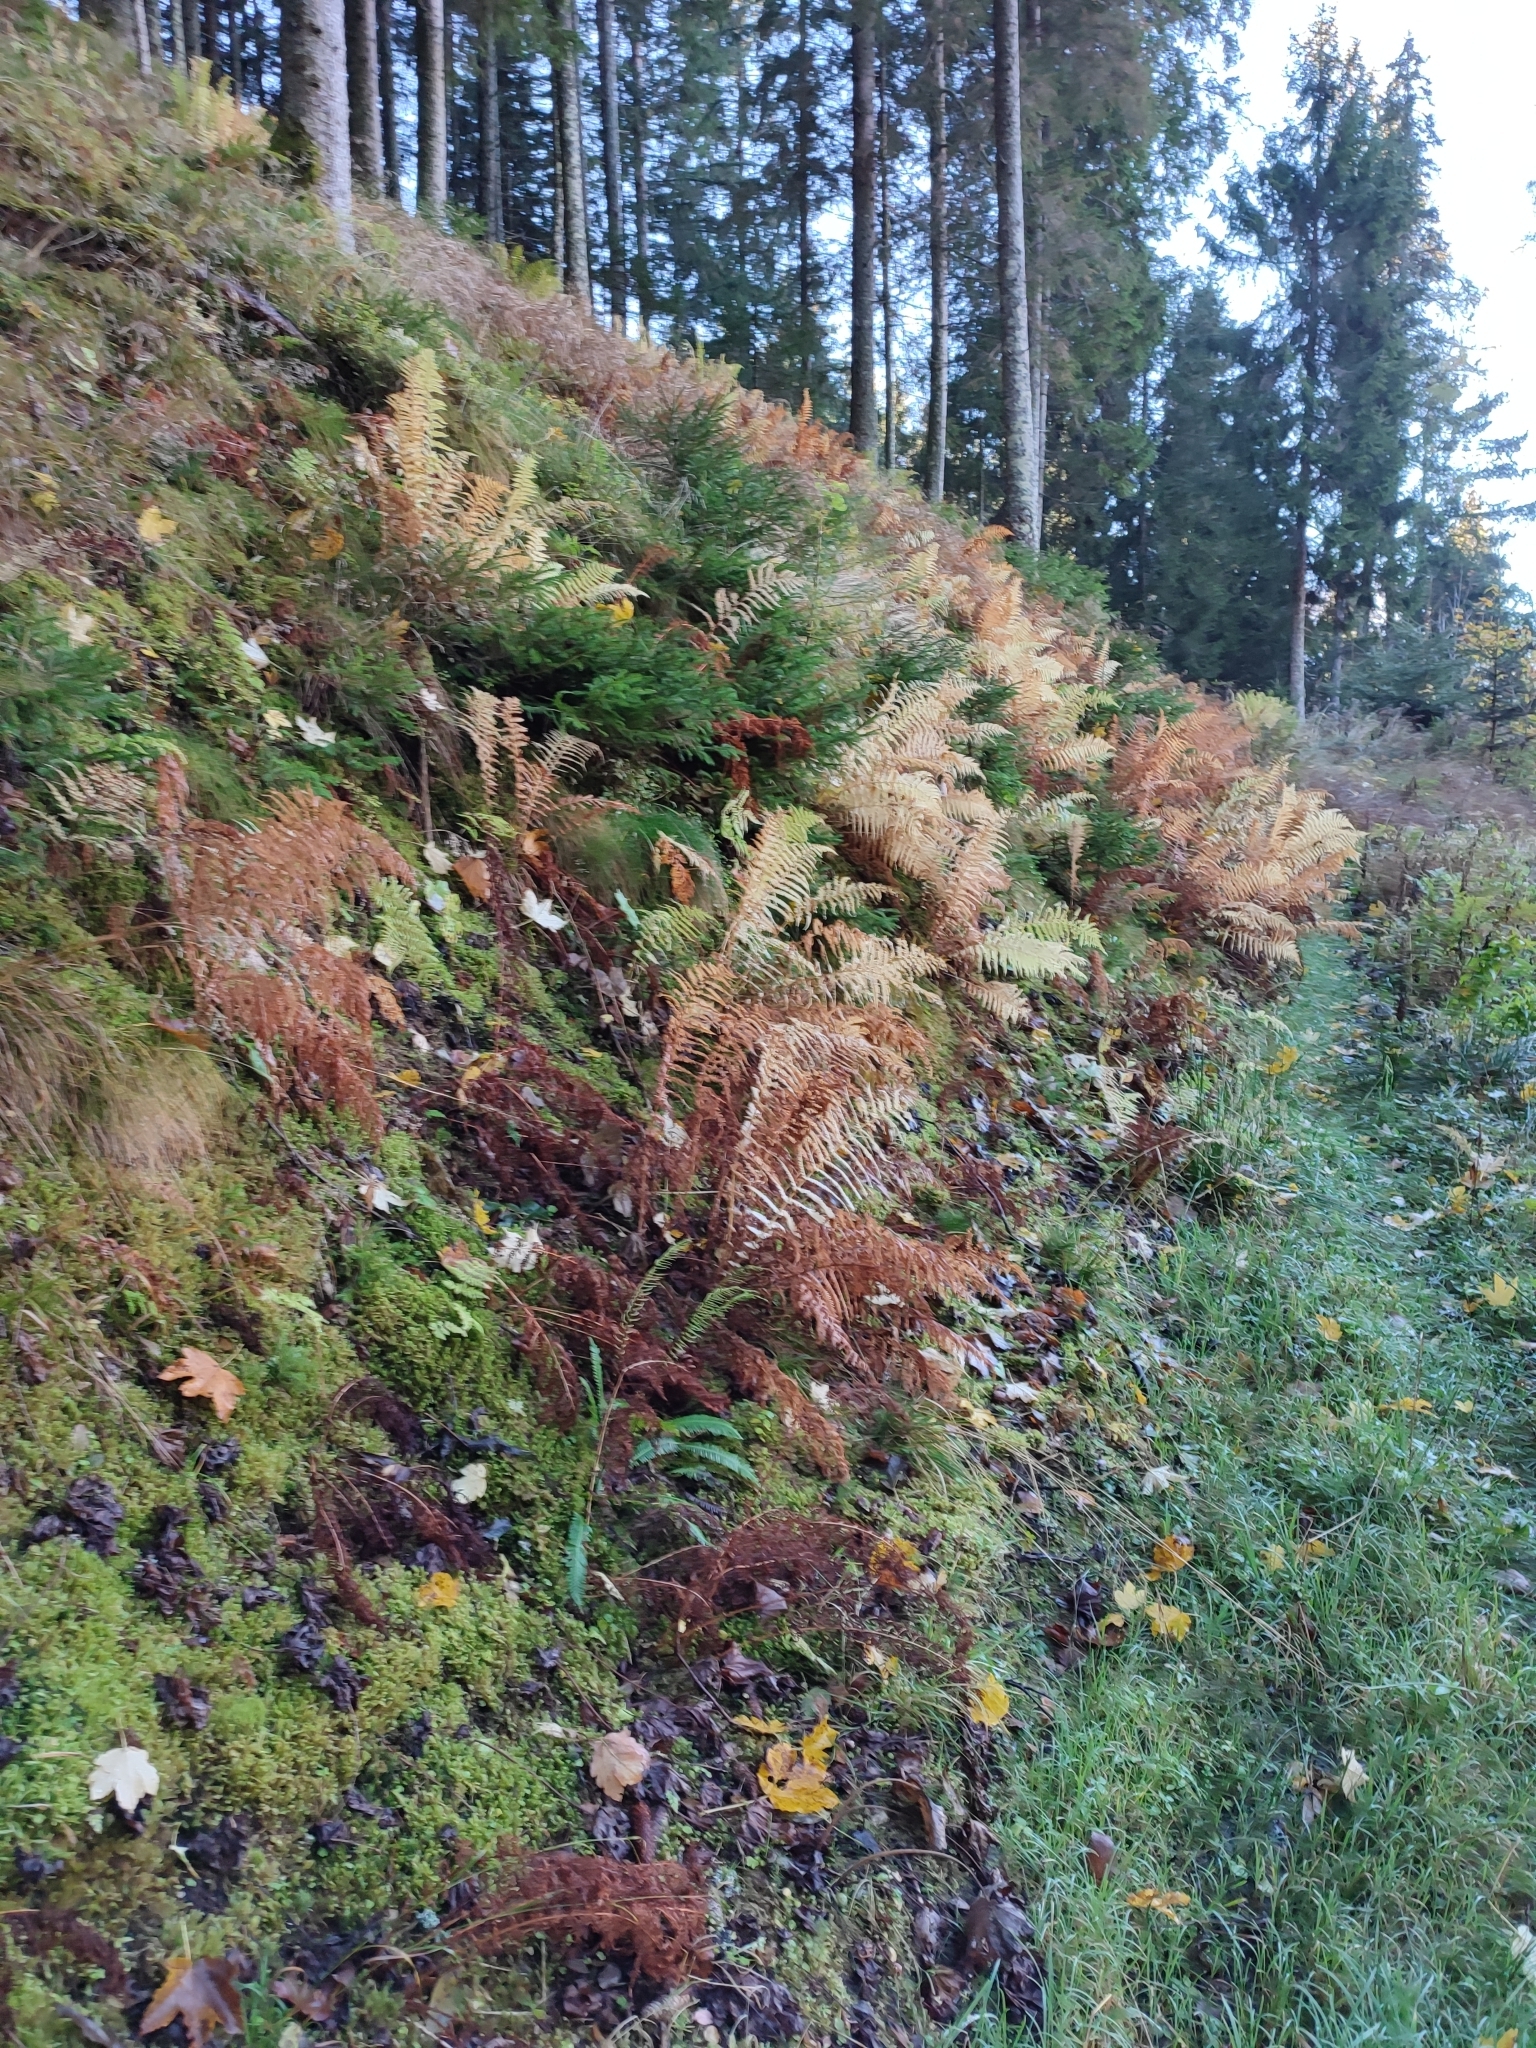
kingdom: Plantae
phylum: Tracheophyta
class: Polypodiopsida
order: Polypodiales
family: Thelypteridaceae
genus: Oreopteris
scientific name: Oreopteris limbosperma
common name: Lemon-scented fern
